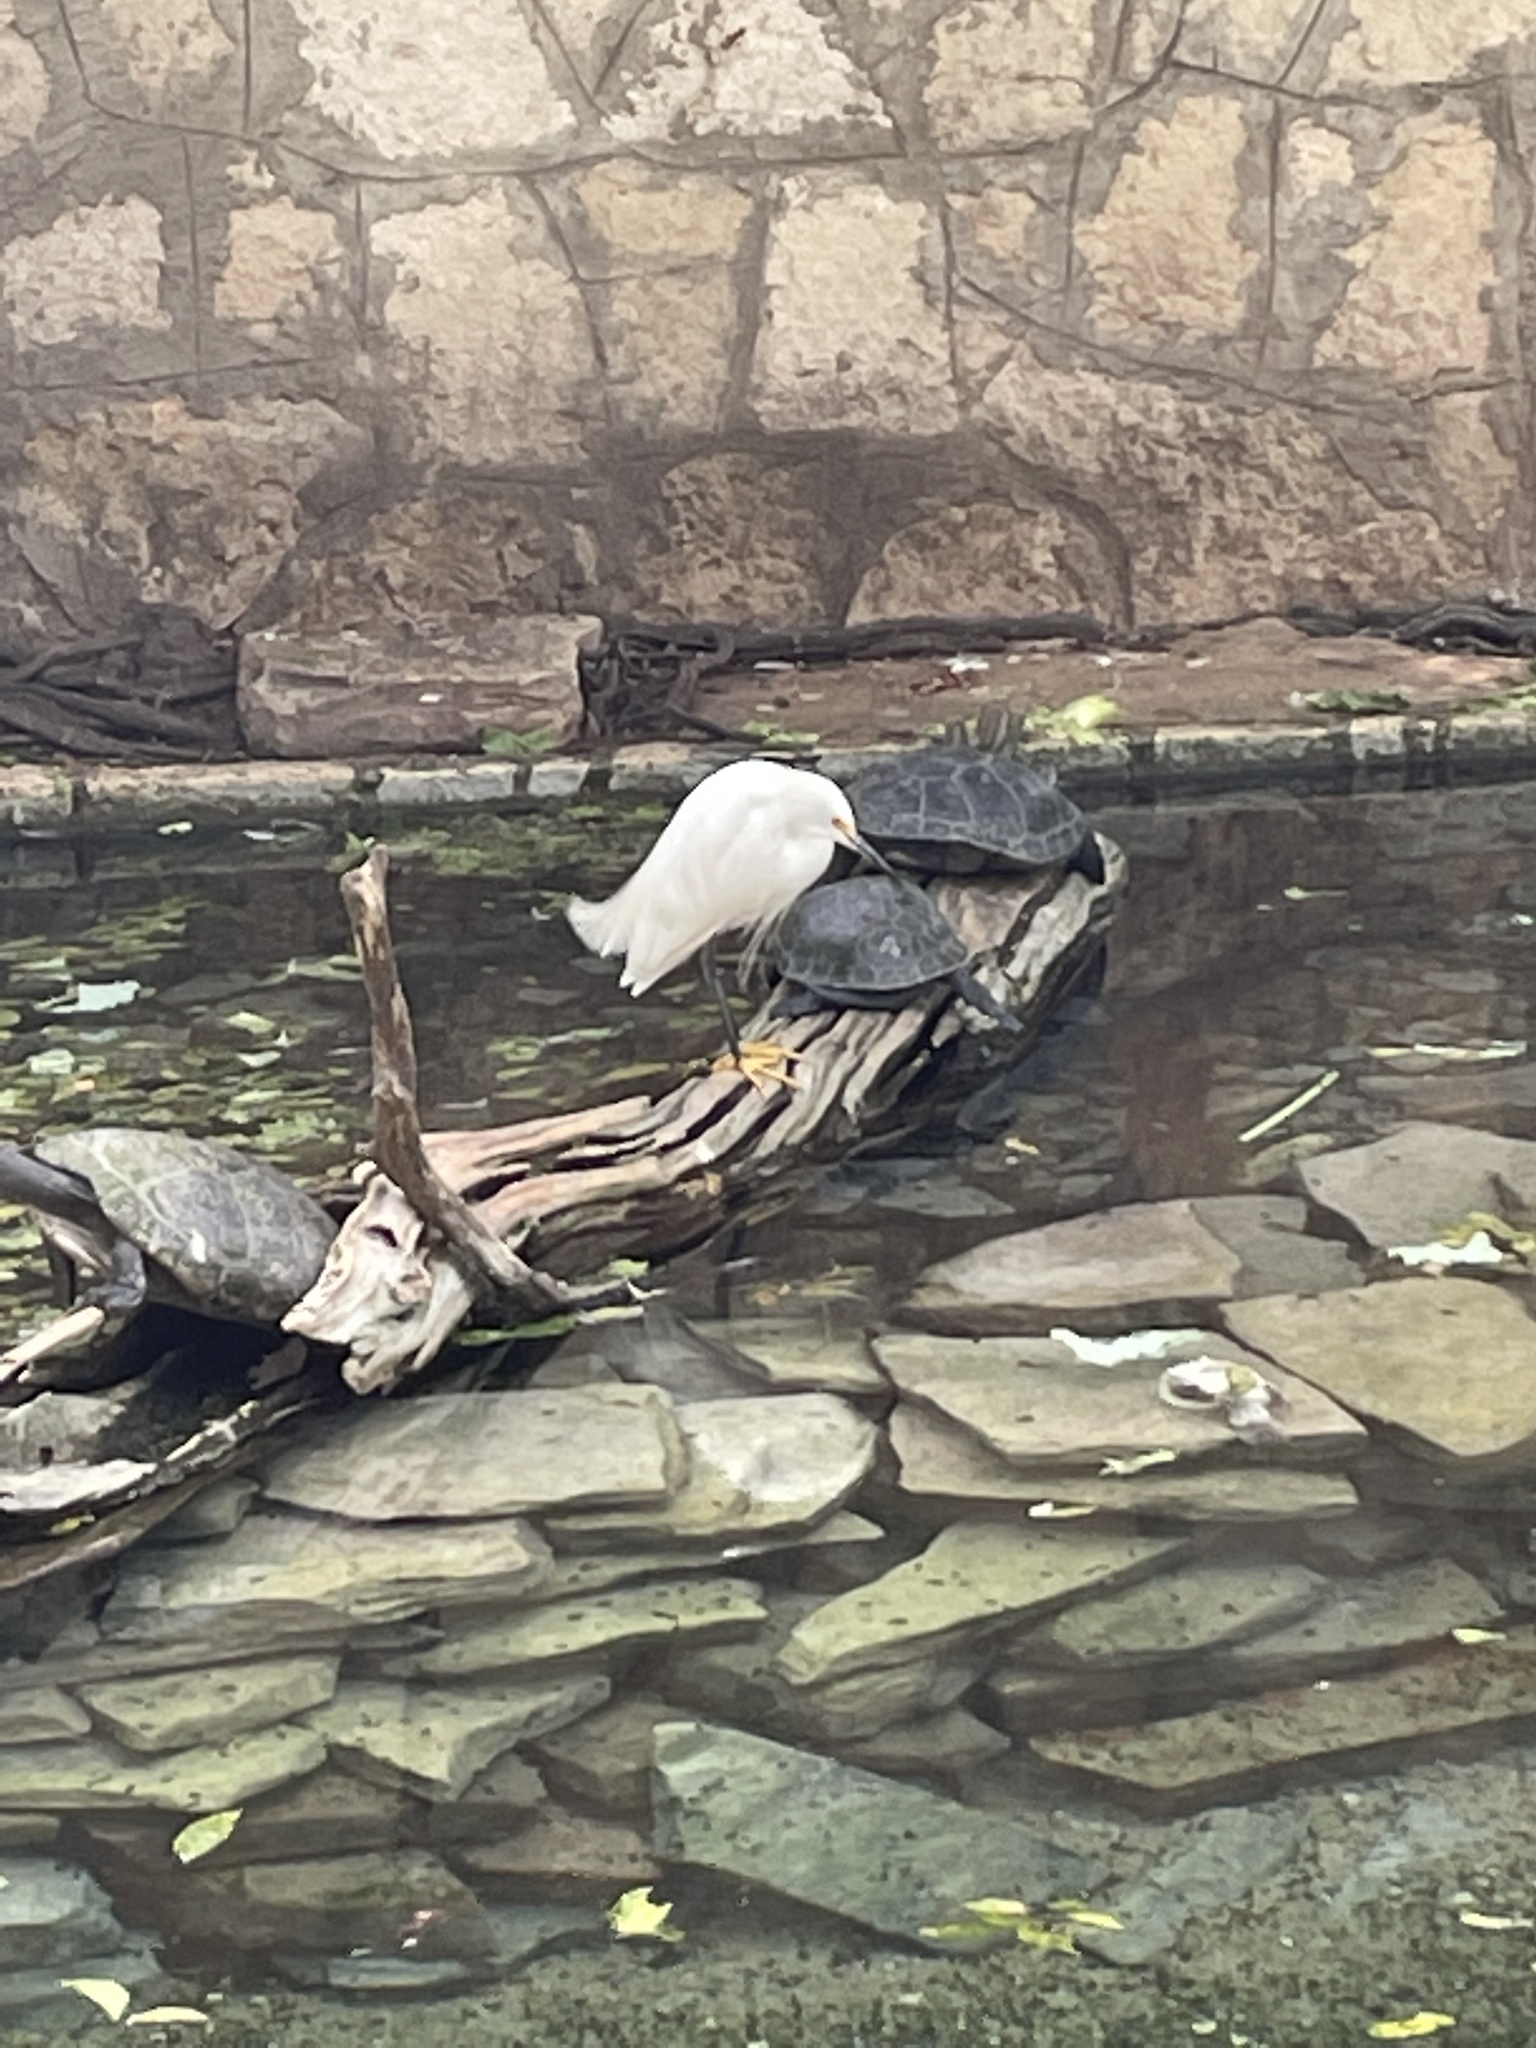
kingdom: Animalia
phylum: Chordata
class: Aves
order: Pelecaniformes
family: Ardeidae
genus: Egretta
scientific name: Egretta thula
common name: Snowy egret
